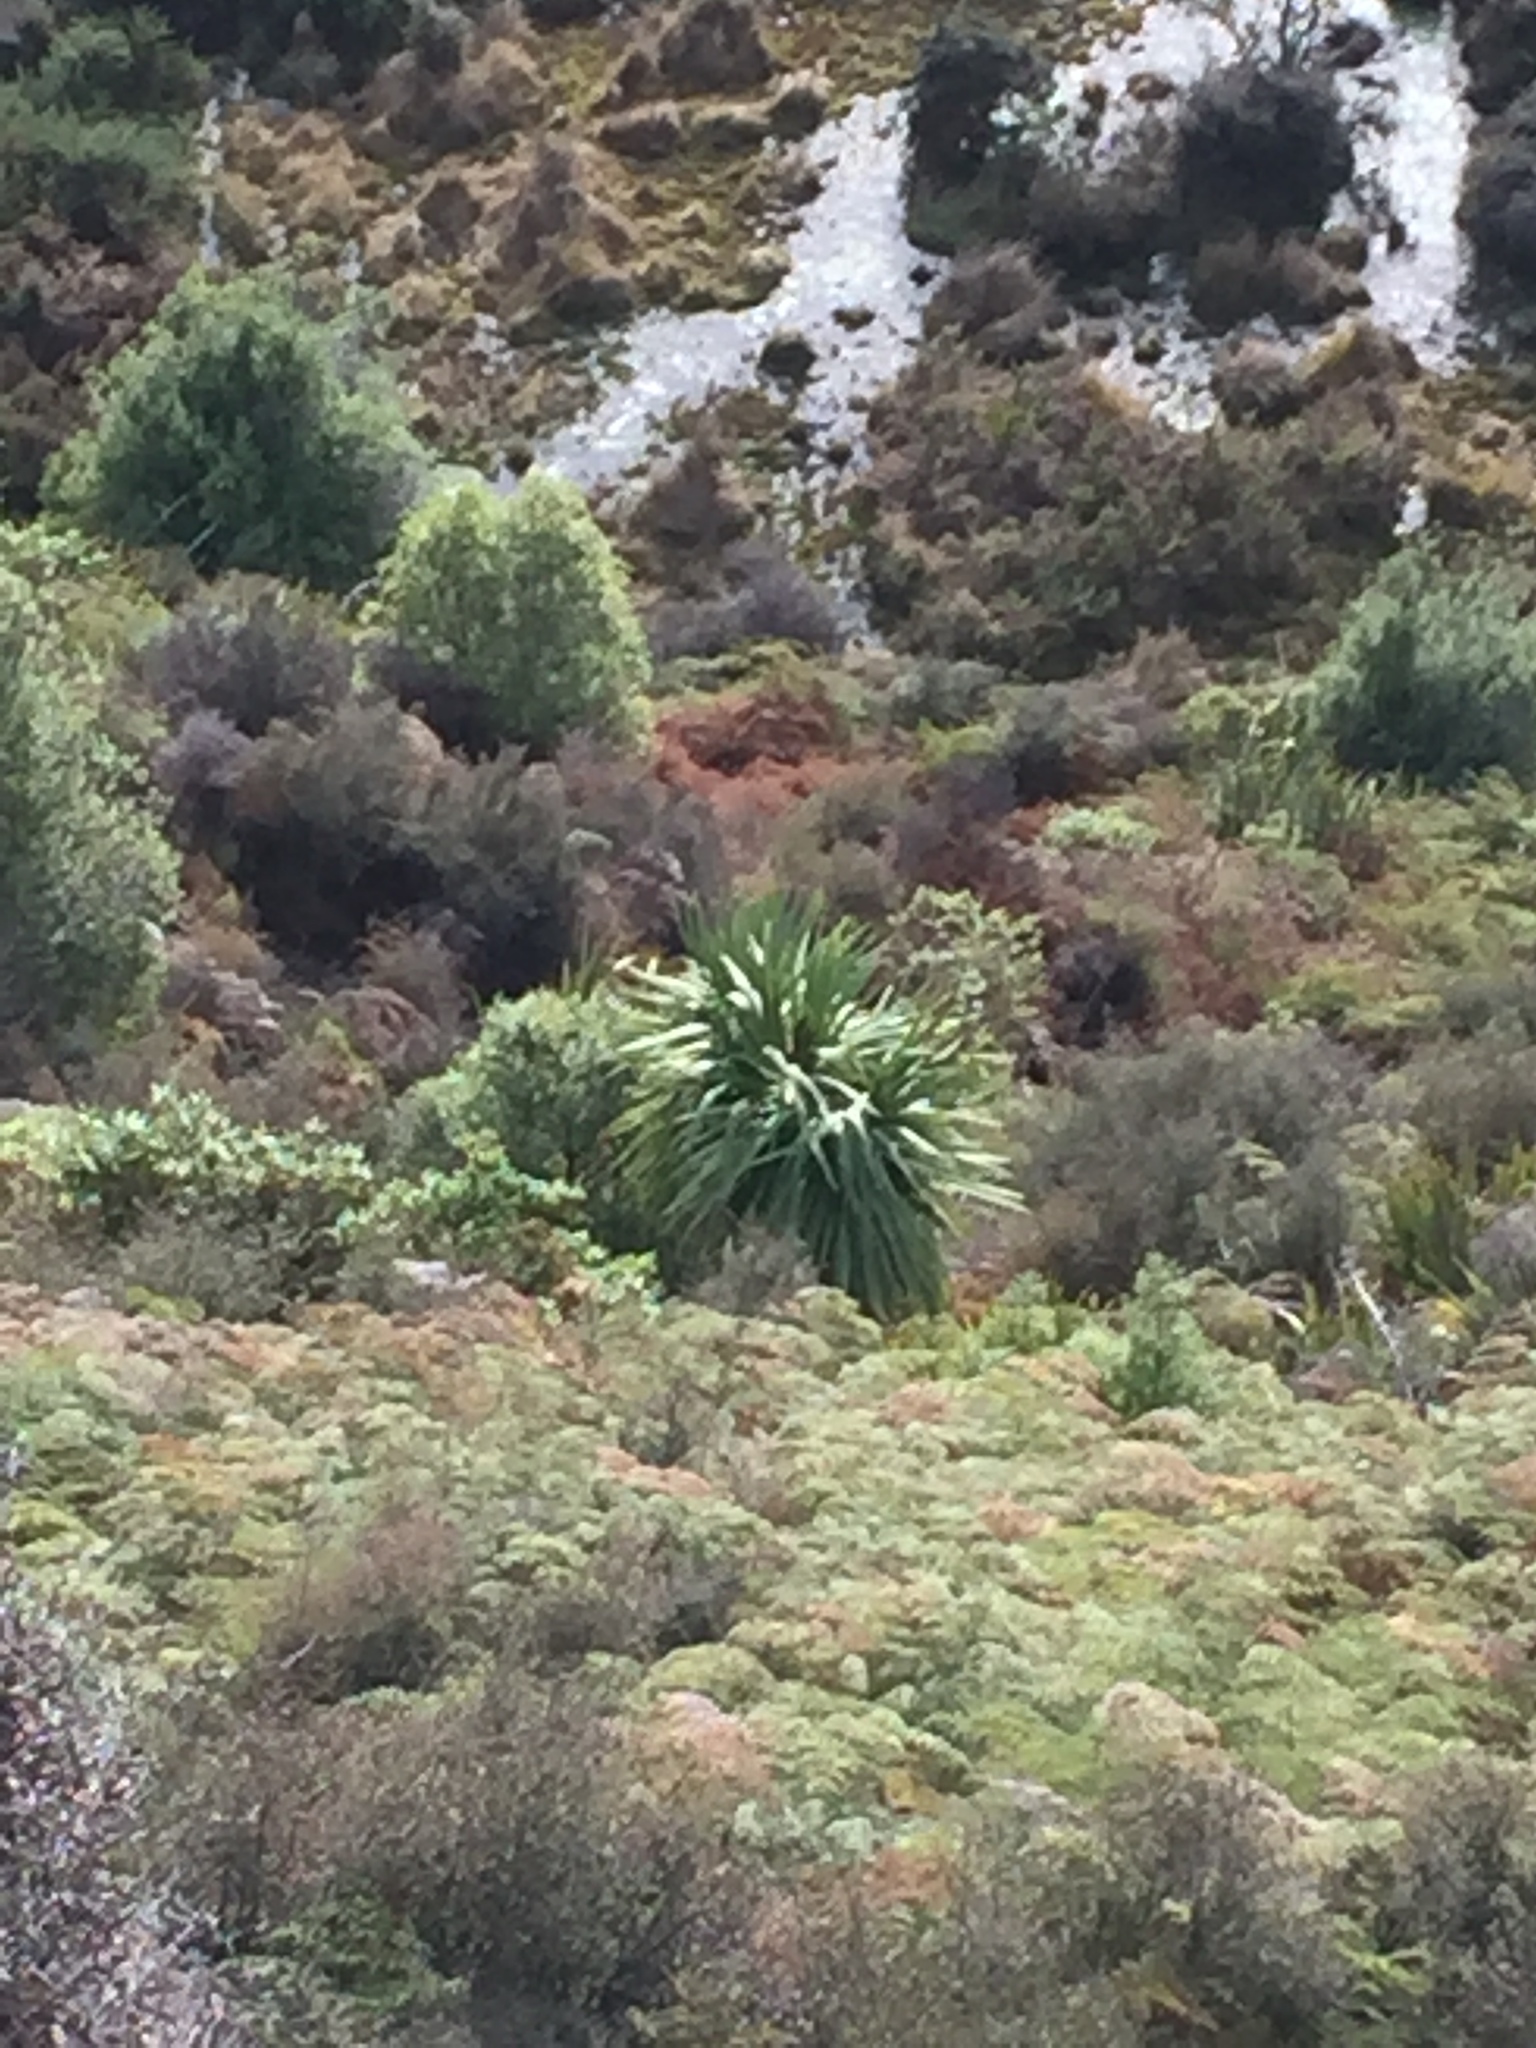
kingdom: Plantae
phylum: Tracheophyta
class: Liliopsida
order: Asparagales
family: Asparagaceae
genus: Cordyline
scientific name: Cordyline australis
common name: Cabbage-palm
